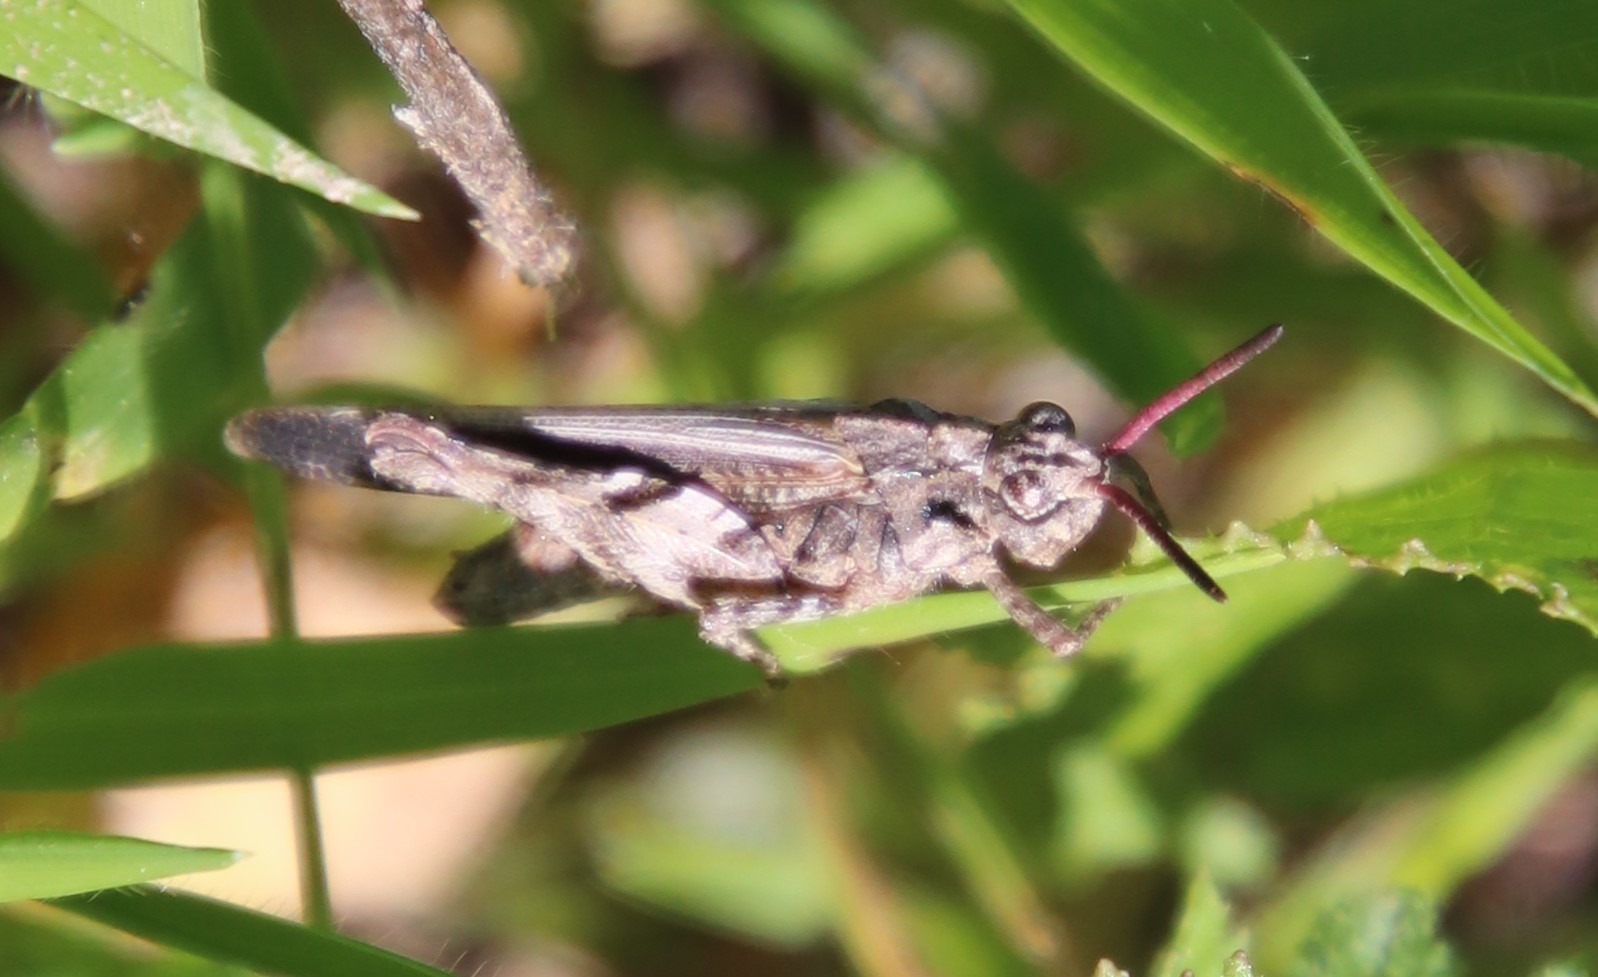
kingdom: Animalia
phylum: Arthropoda
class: Insecta
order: Orthoptera
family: Acrididae
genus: Chimarocephala
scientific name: Chimarocephala pacifica
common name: Painted meadow grasshopper
